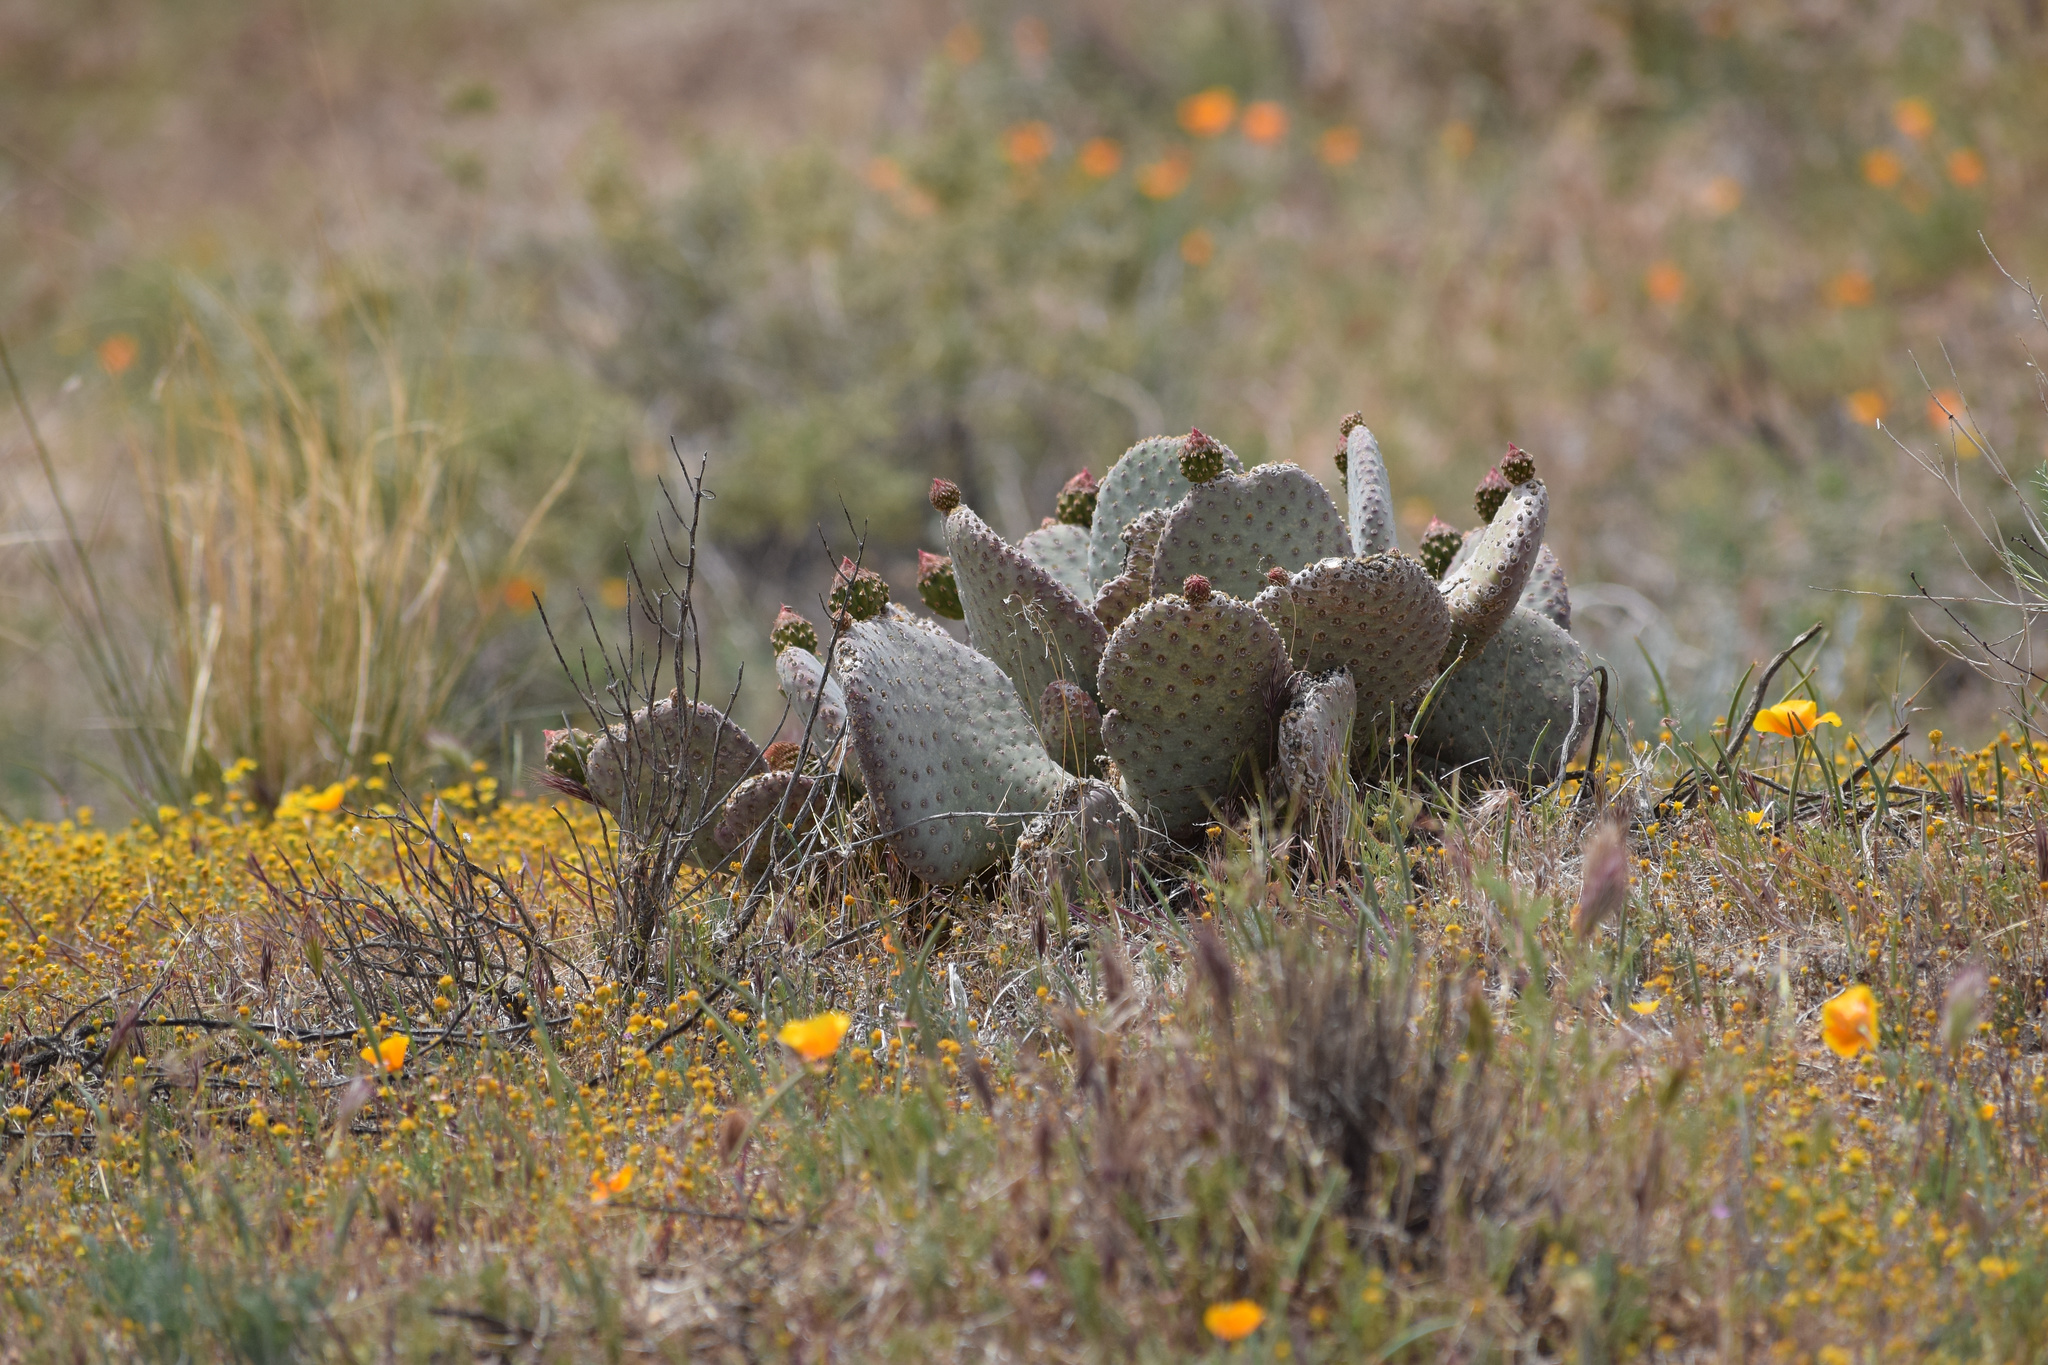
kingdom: Plantae
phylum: Tracheophyta
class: Magnoliopsida
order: Caryophyllales
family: Cactaceae
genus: Opuntia
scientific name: Opuntia basilaris
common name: Beavertail prickly-pear
